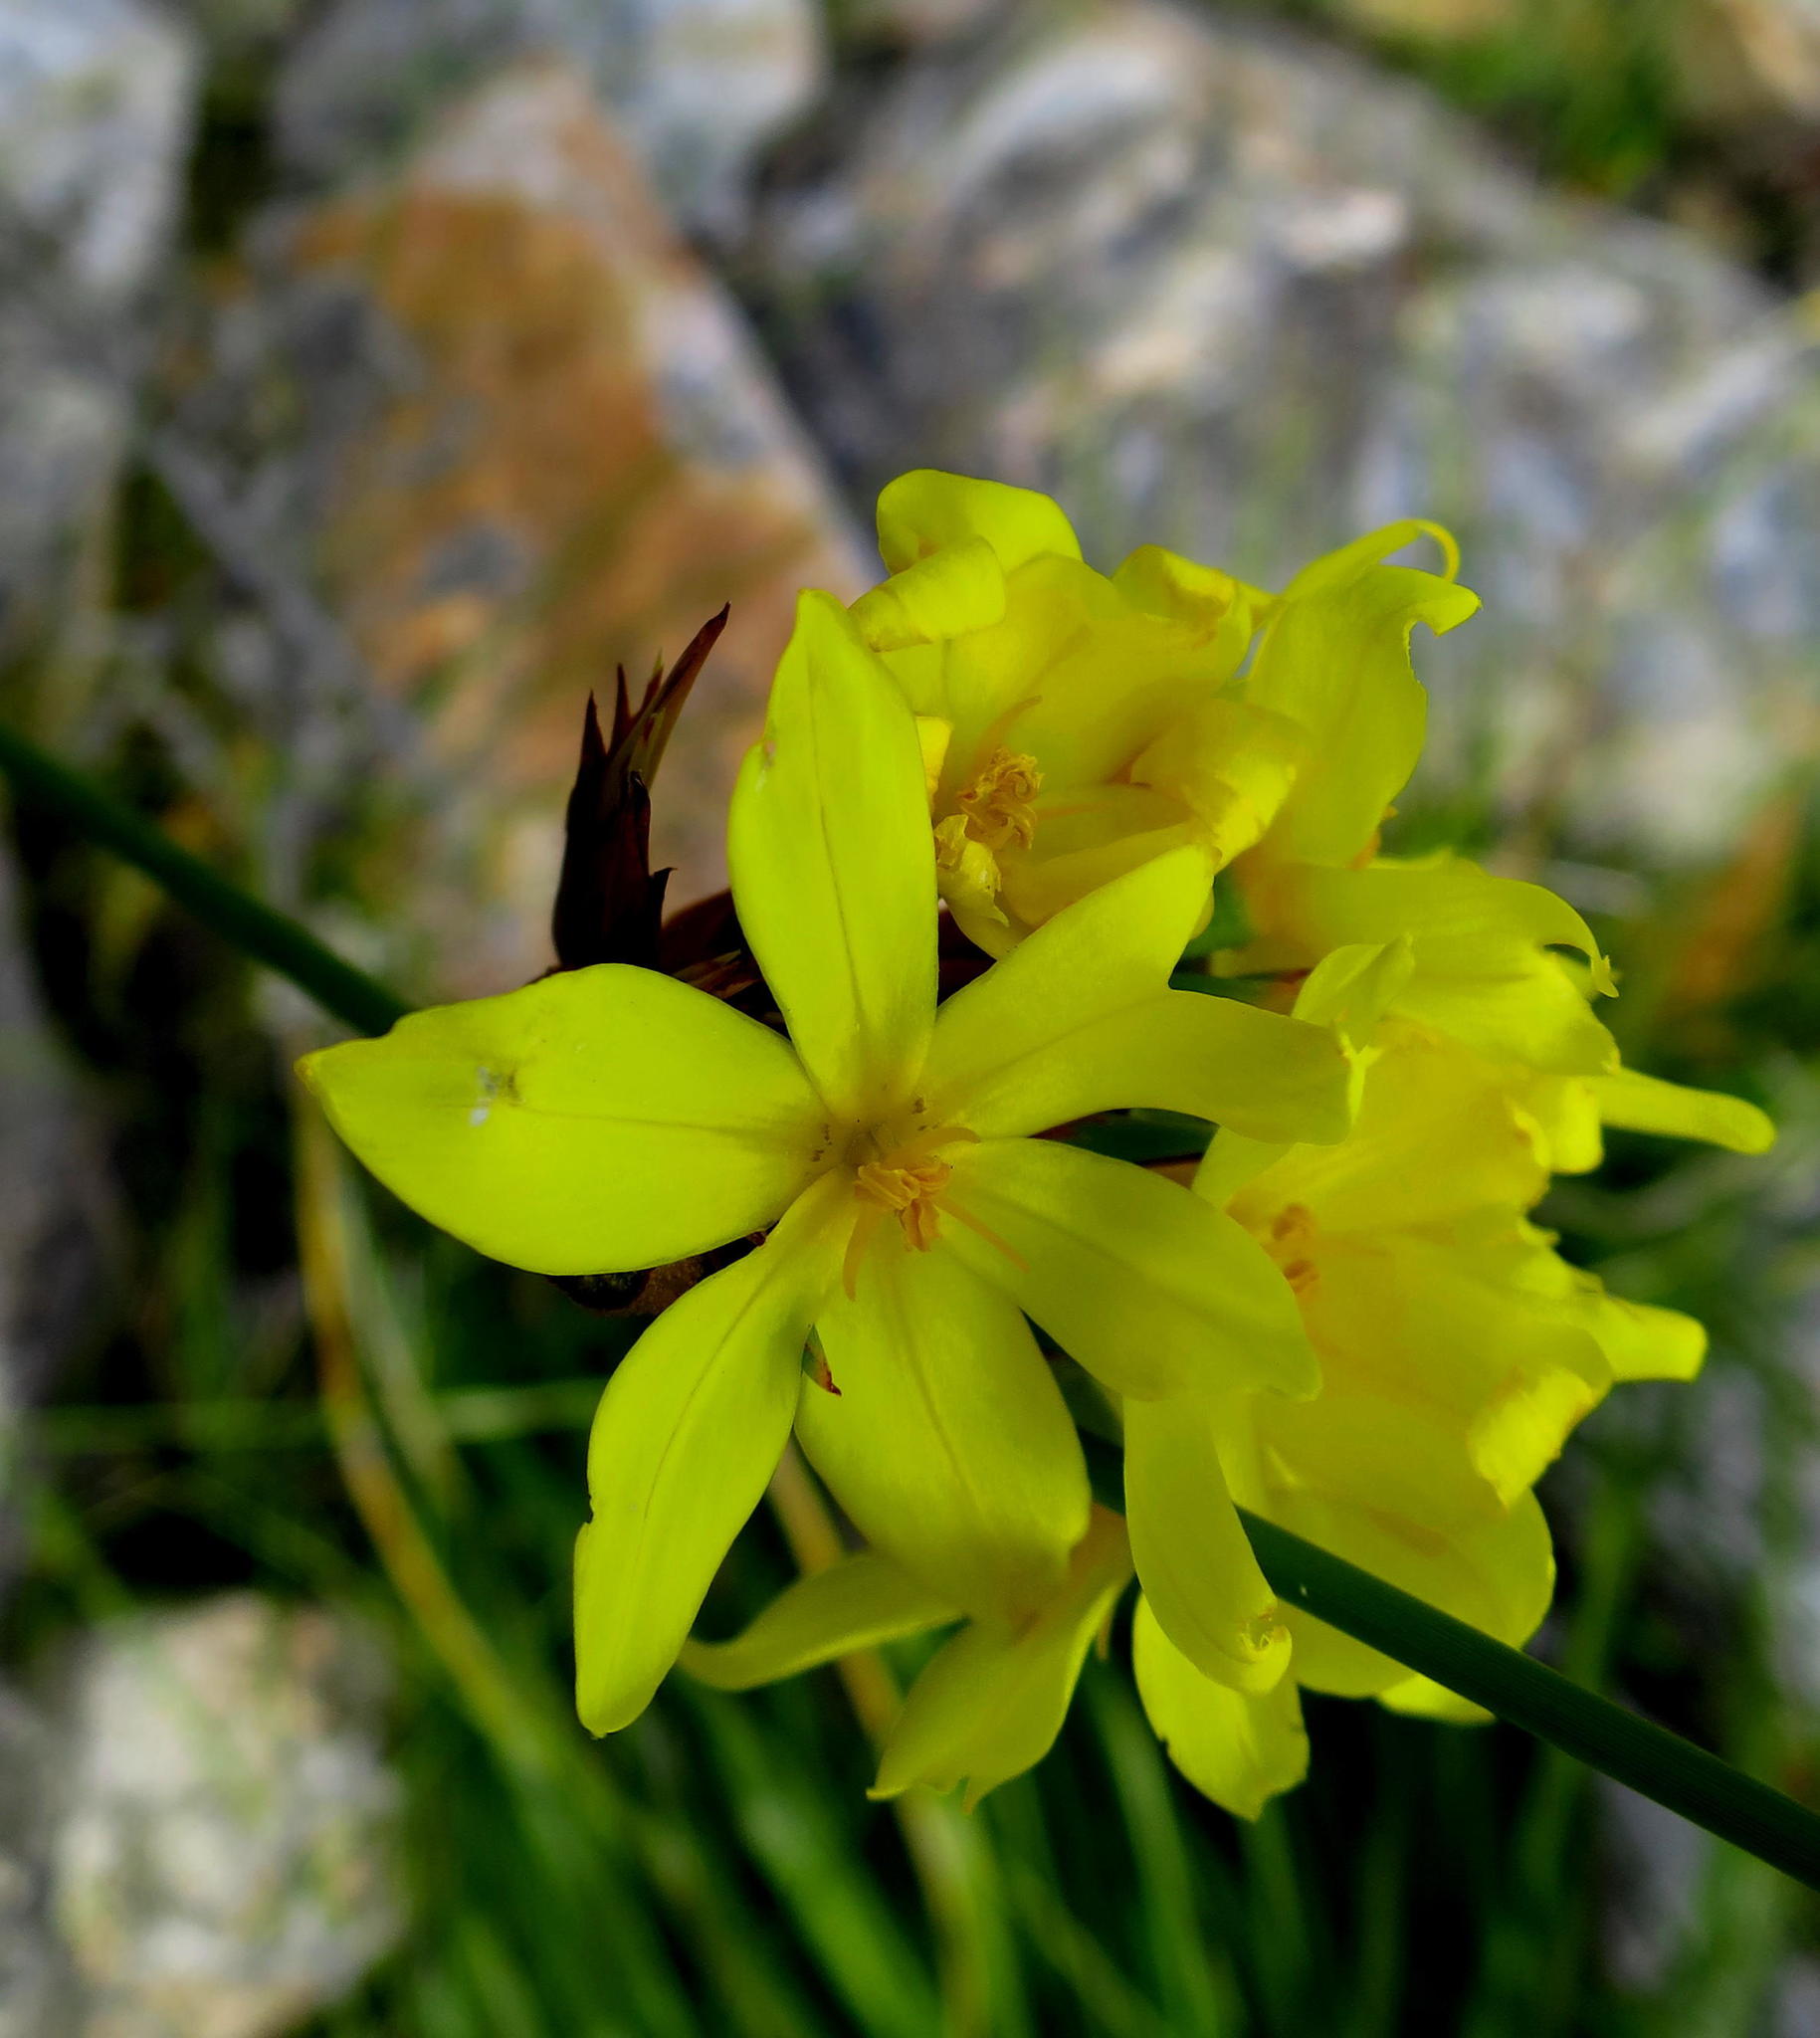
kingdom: Plantae
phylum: Tracheophyta
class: Liliopsida
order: Asparagales
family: Iridaceae
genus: Bobartia
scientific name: Bobartia aphylla
